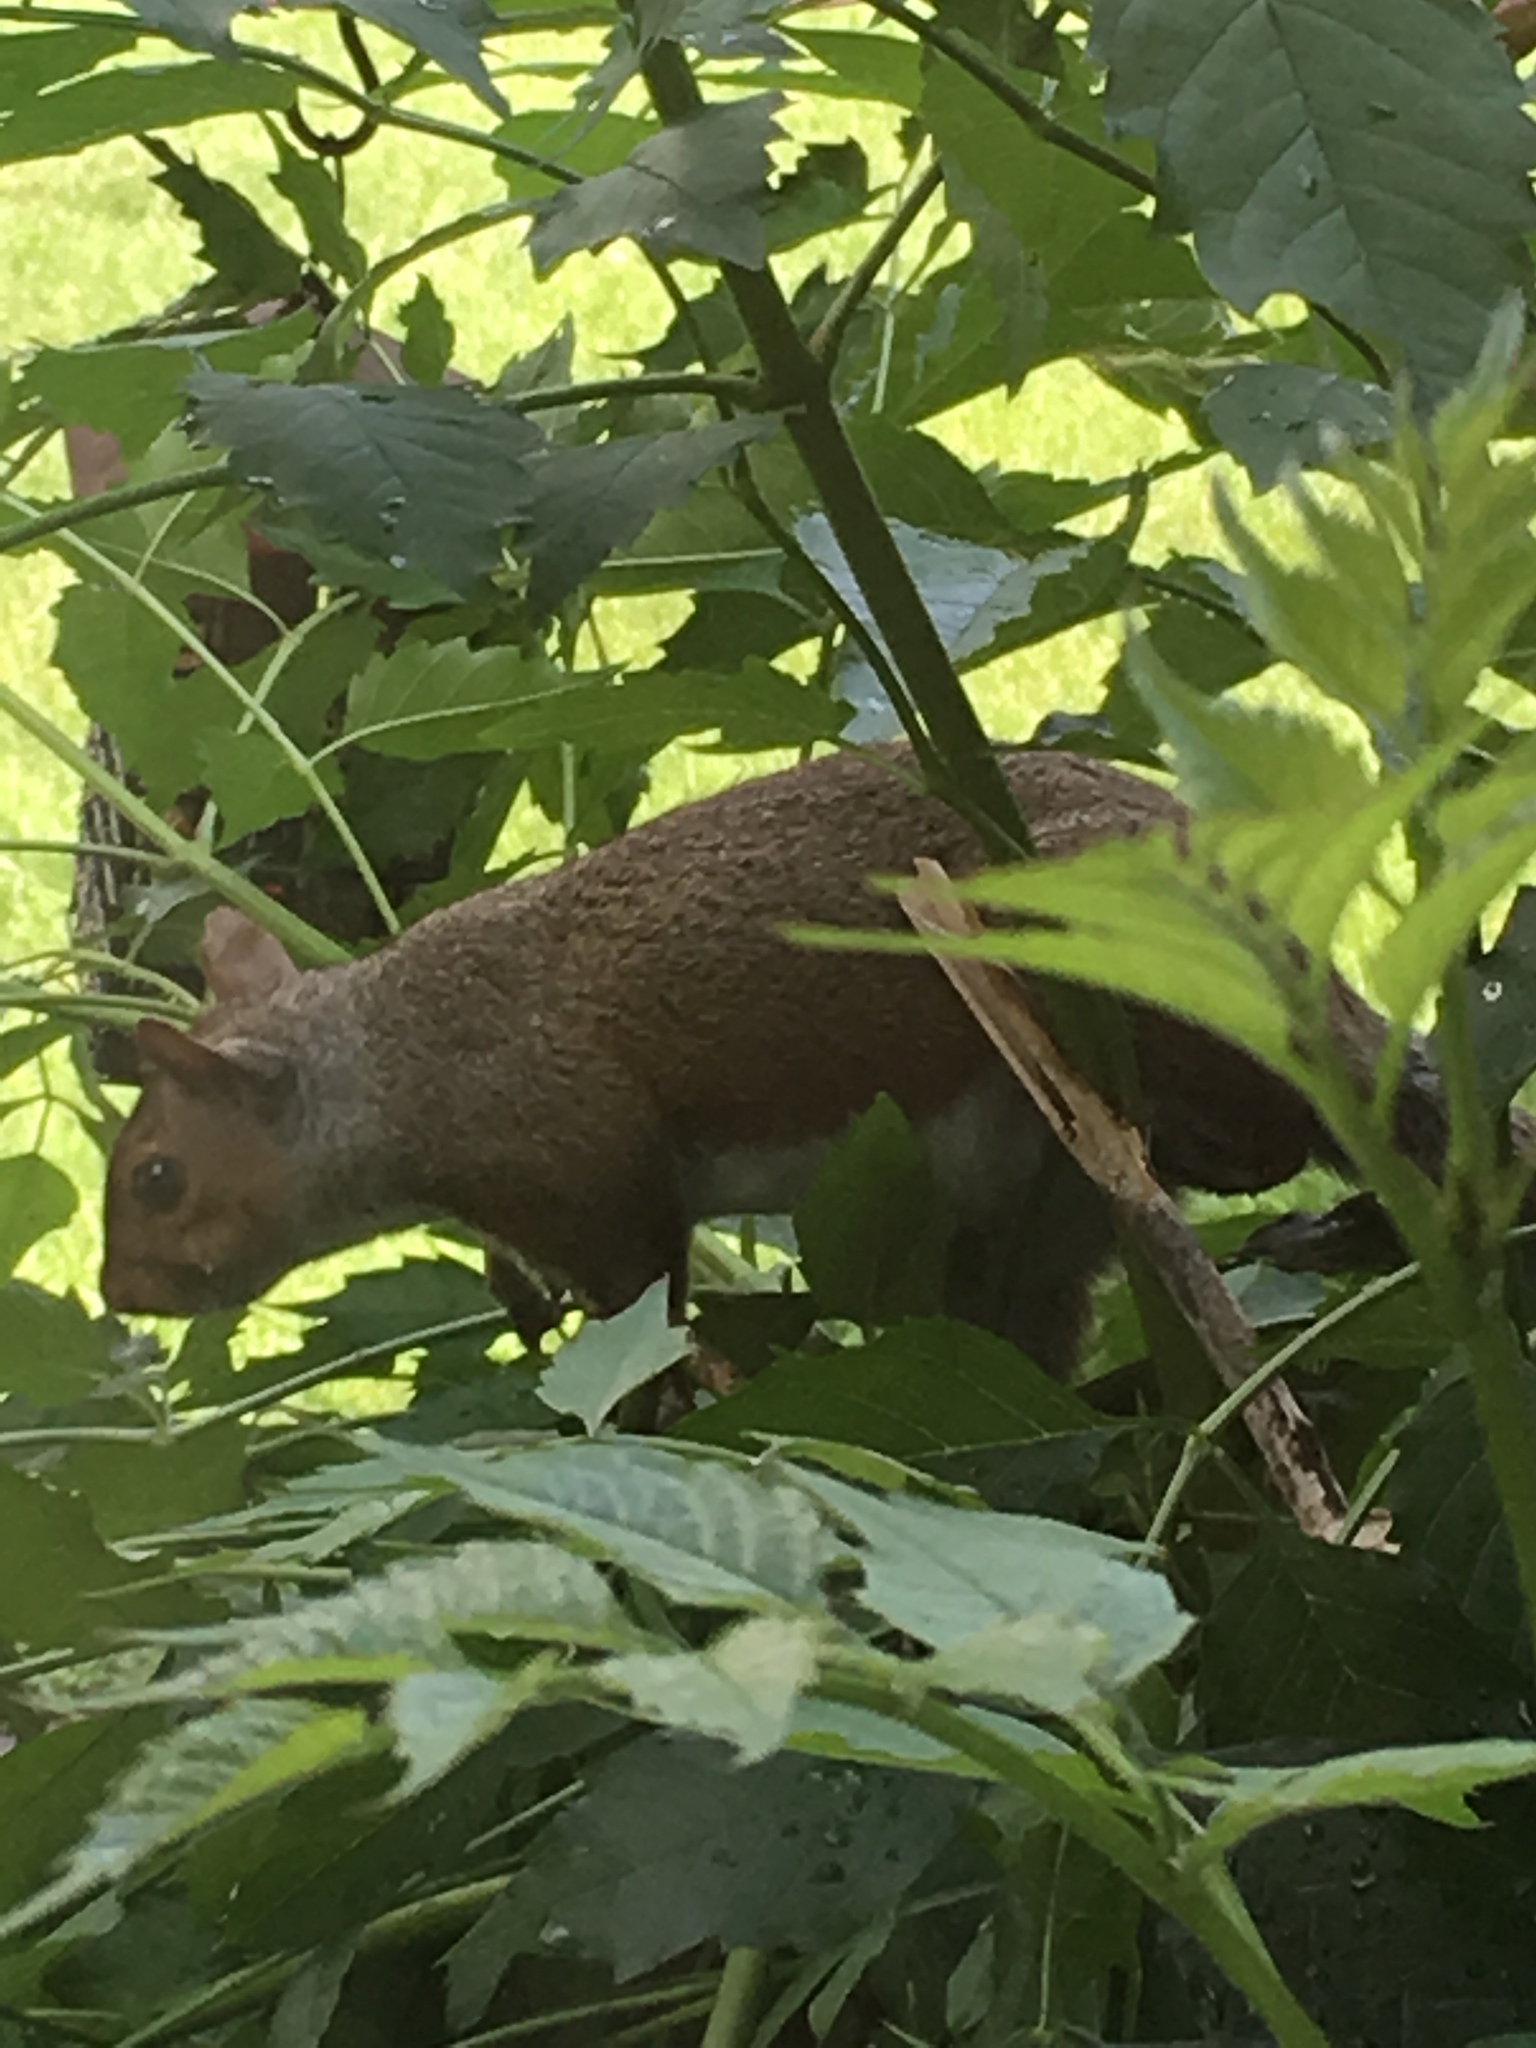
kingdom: Animalia
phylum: Chordata
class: Mammalia
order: Rodentia
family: Sciuridae
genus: Sciurus
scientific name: Sciurus carolinensis
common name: Eastern gray squirrel
